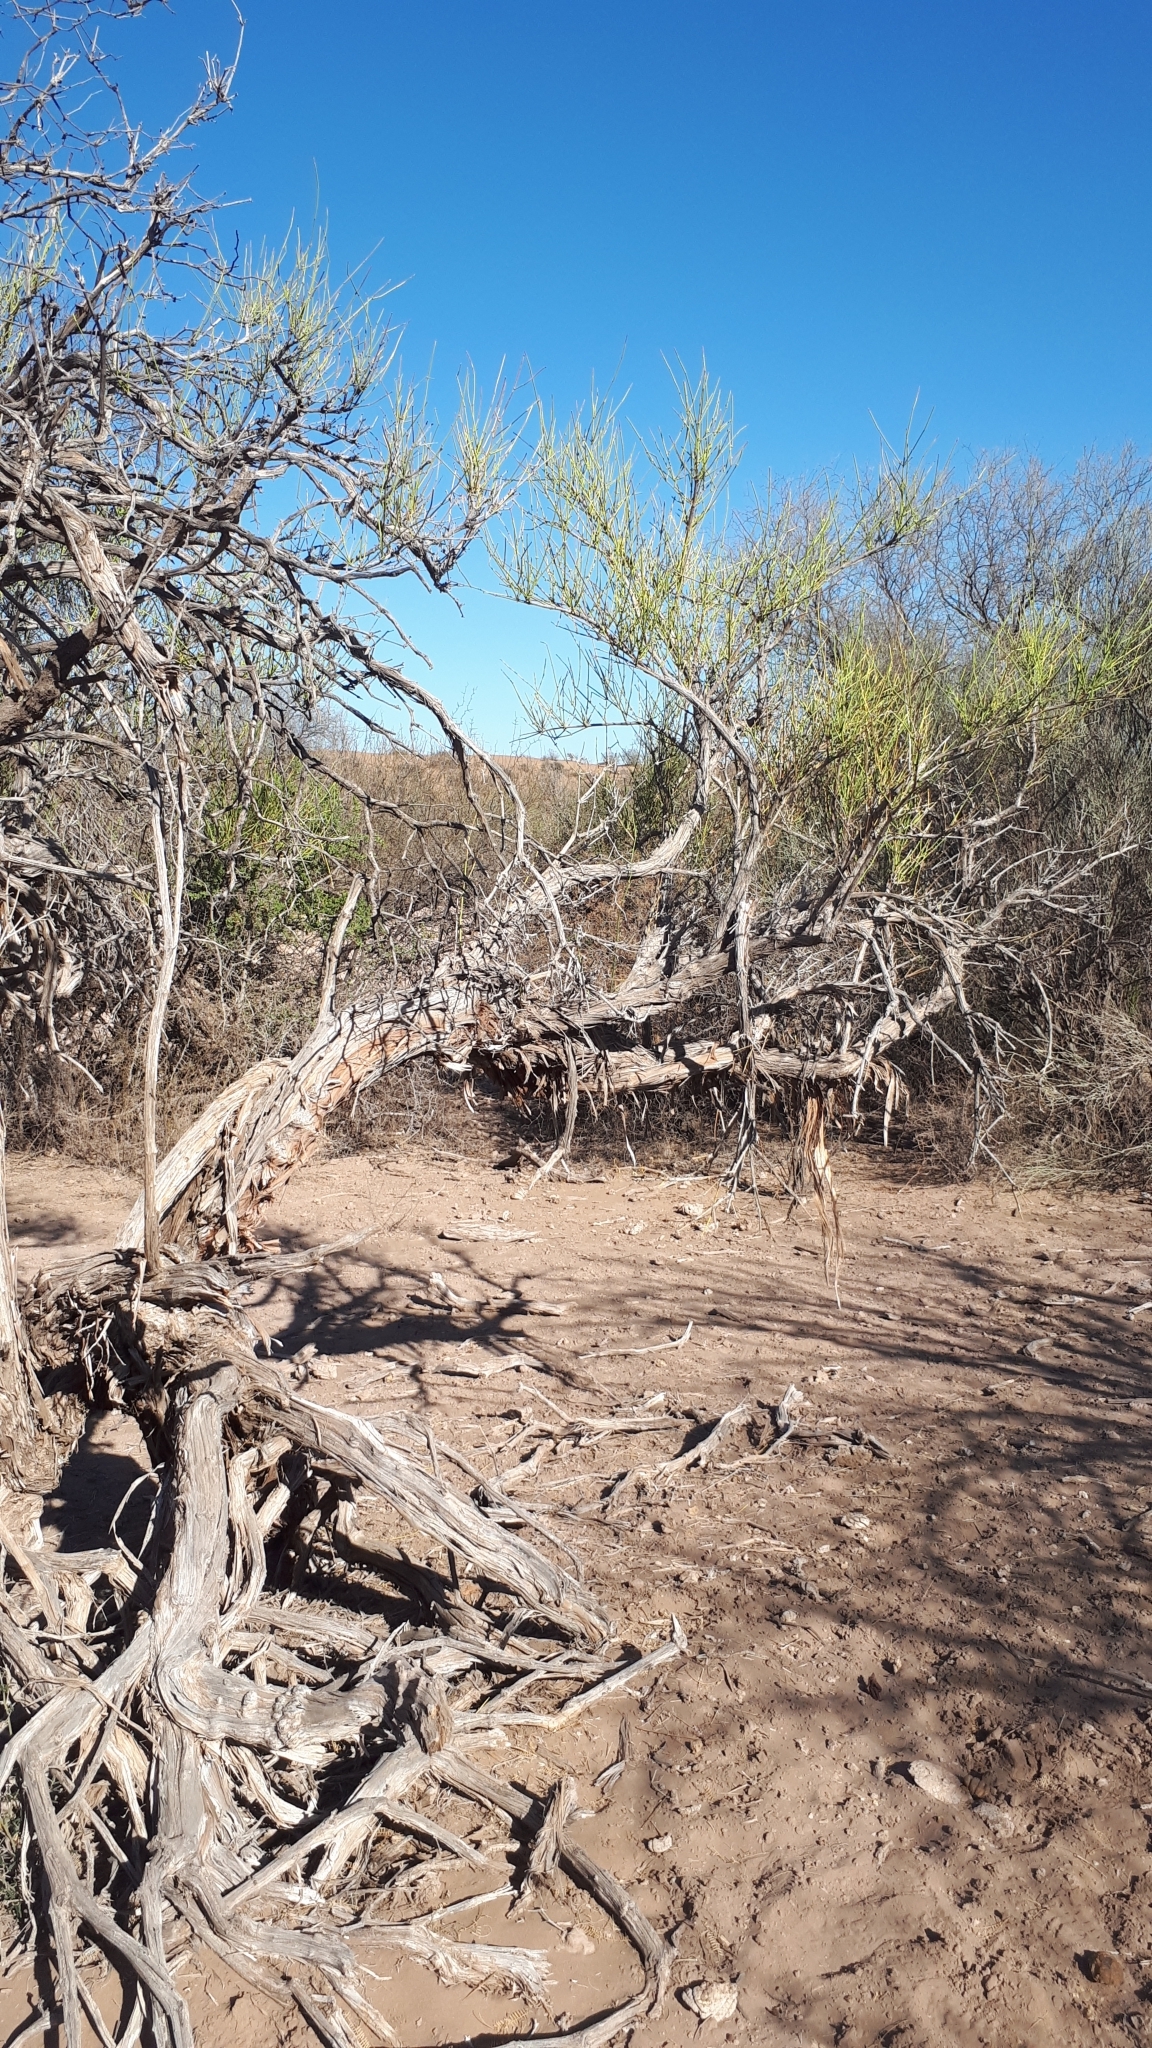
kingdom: Plantae
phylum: Tracheophyta
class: Gnetopsida
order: Ephedrales
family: Ephedraceae
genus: Ephedra
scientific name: Ephedra boelckei
